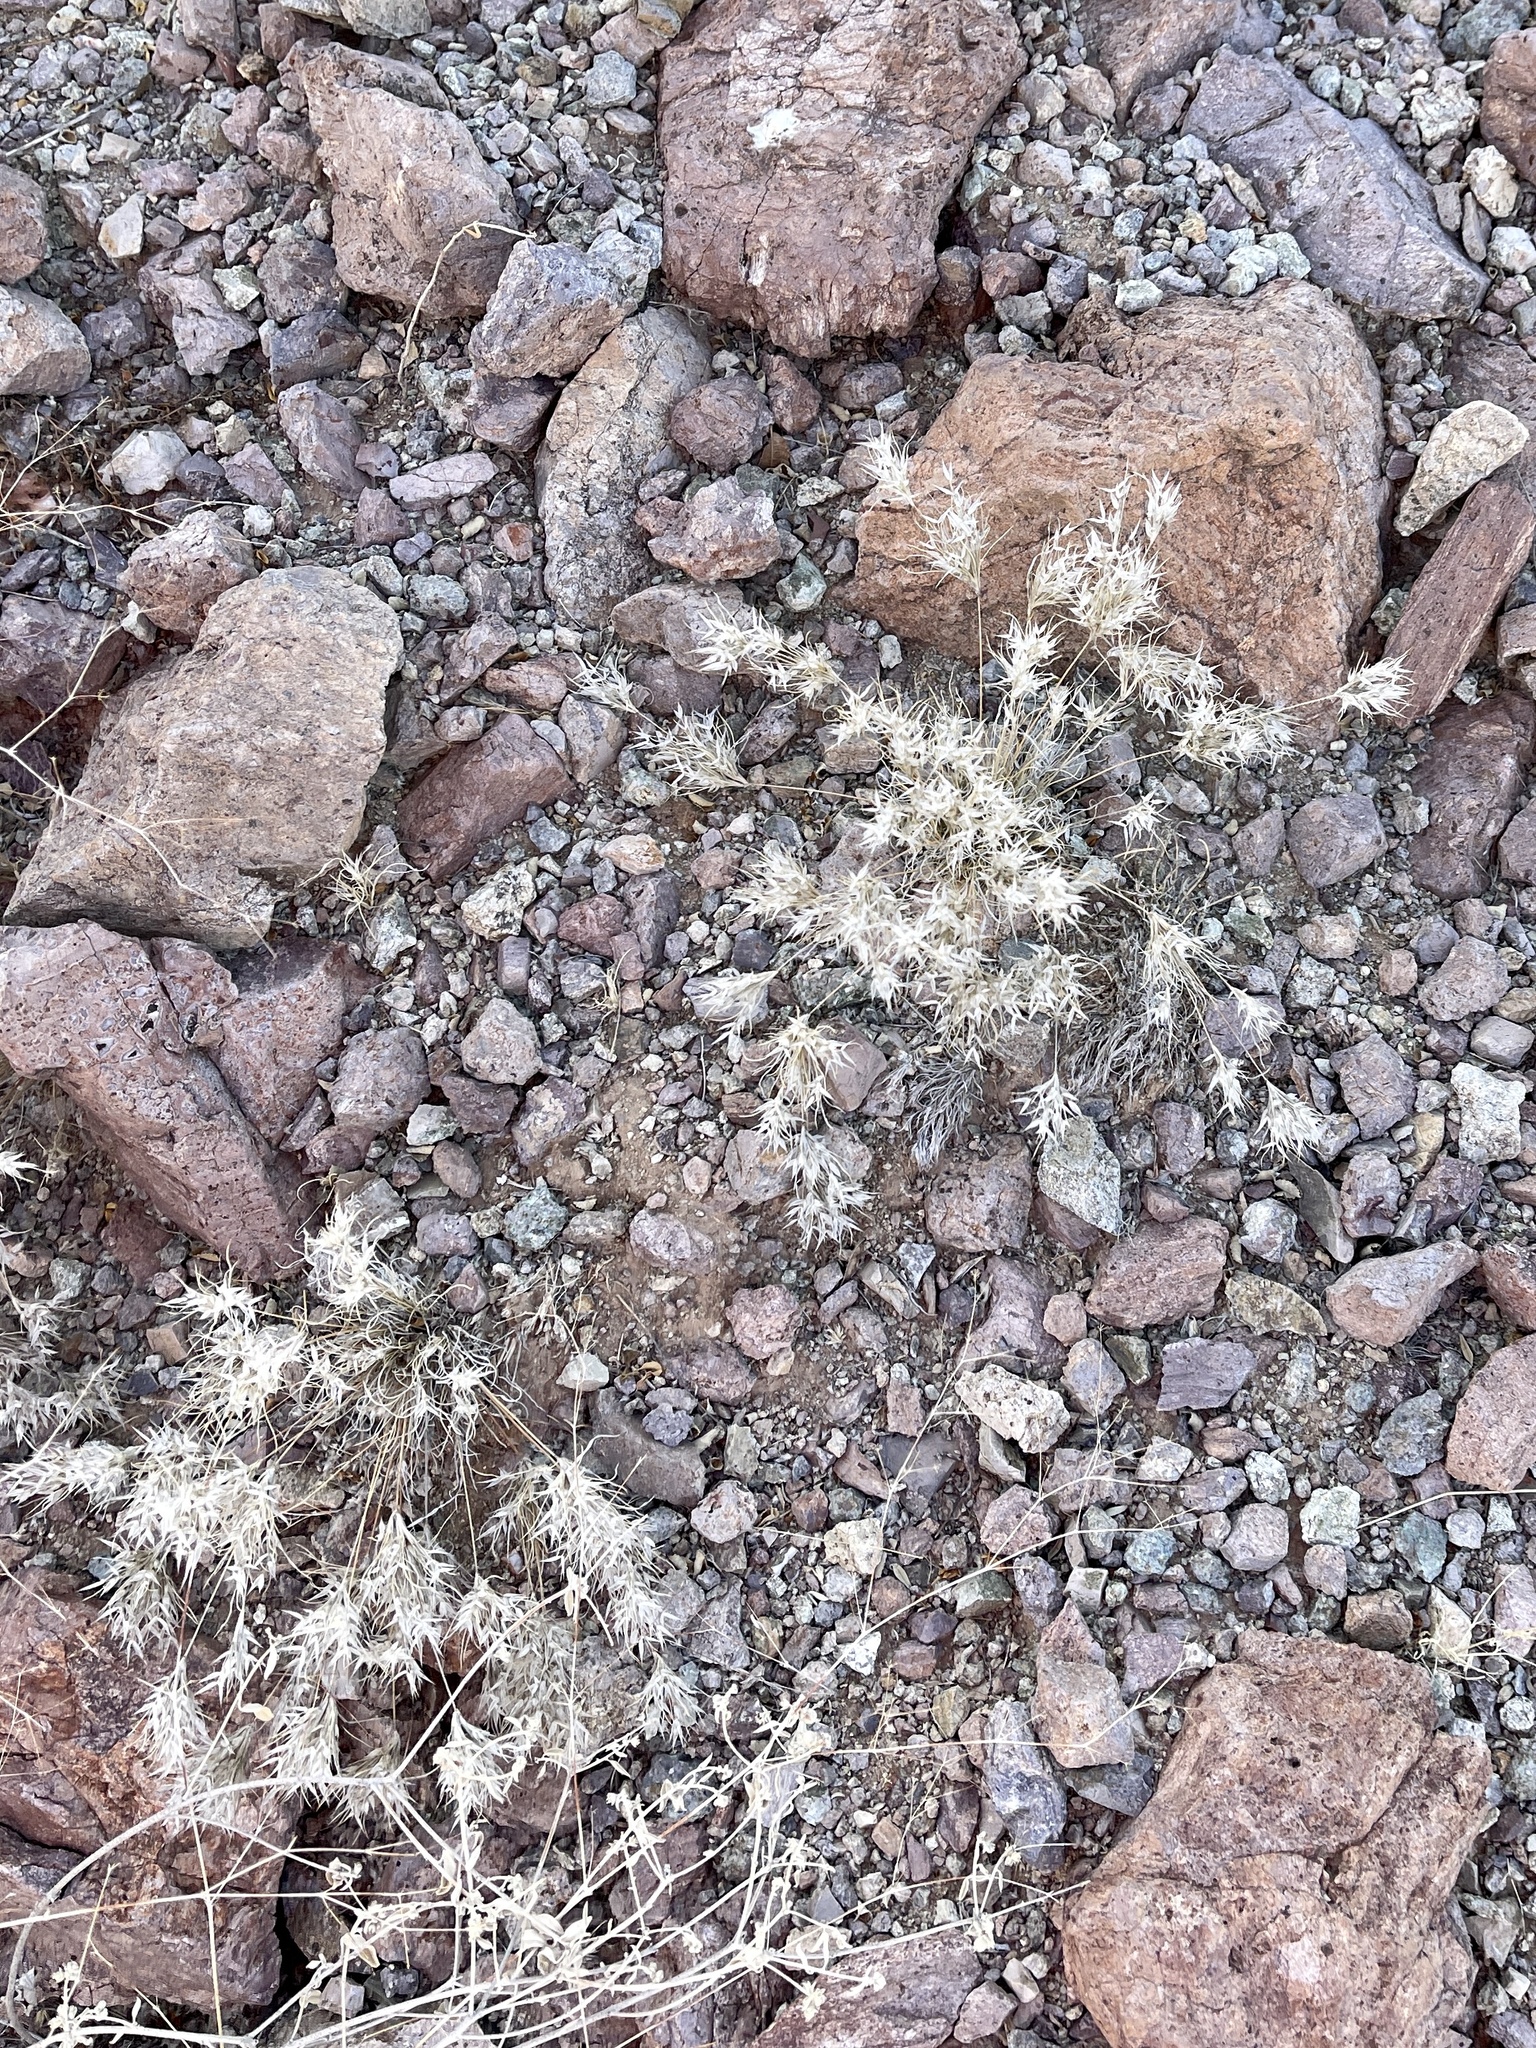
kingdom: Plantae
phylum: Tracheophyta
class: Liliopsida
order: Poales
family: Poaceae
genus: Dasyochloa
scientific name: Dasyochloa pulchella
